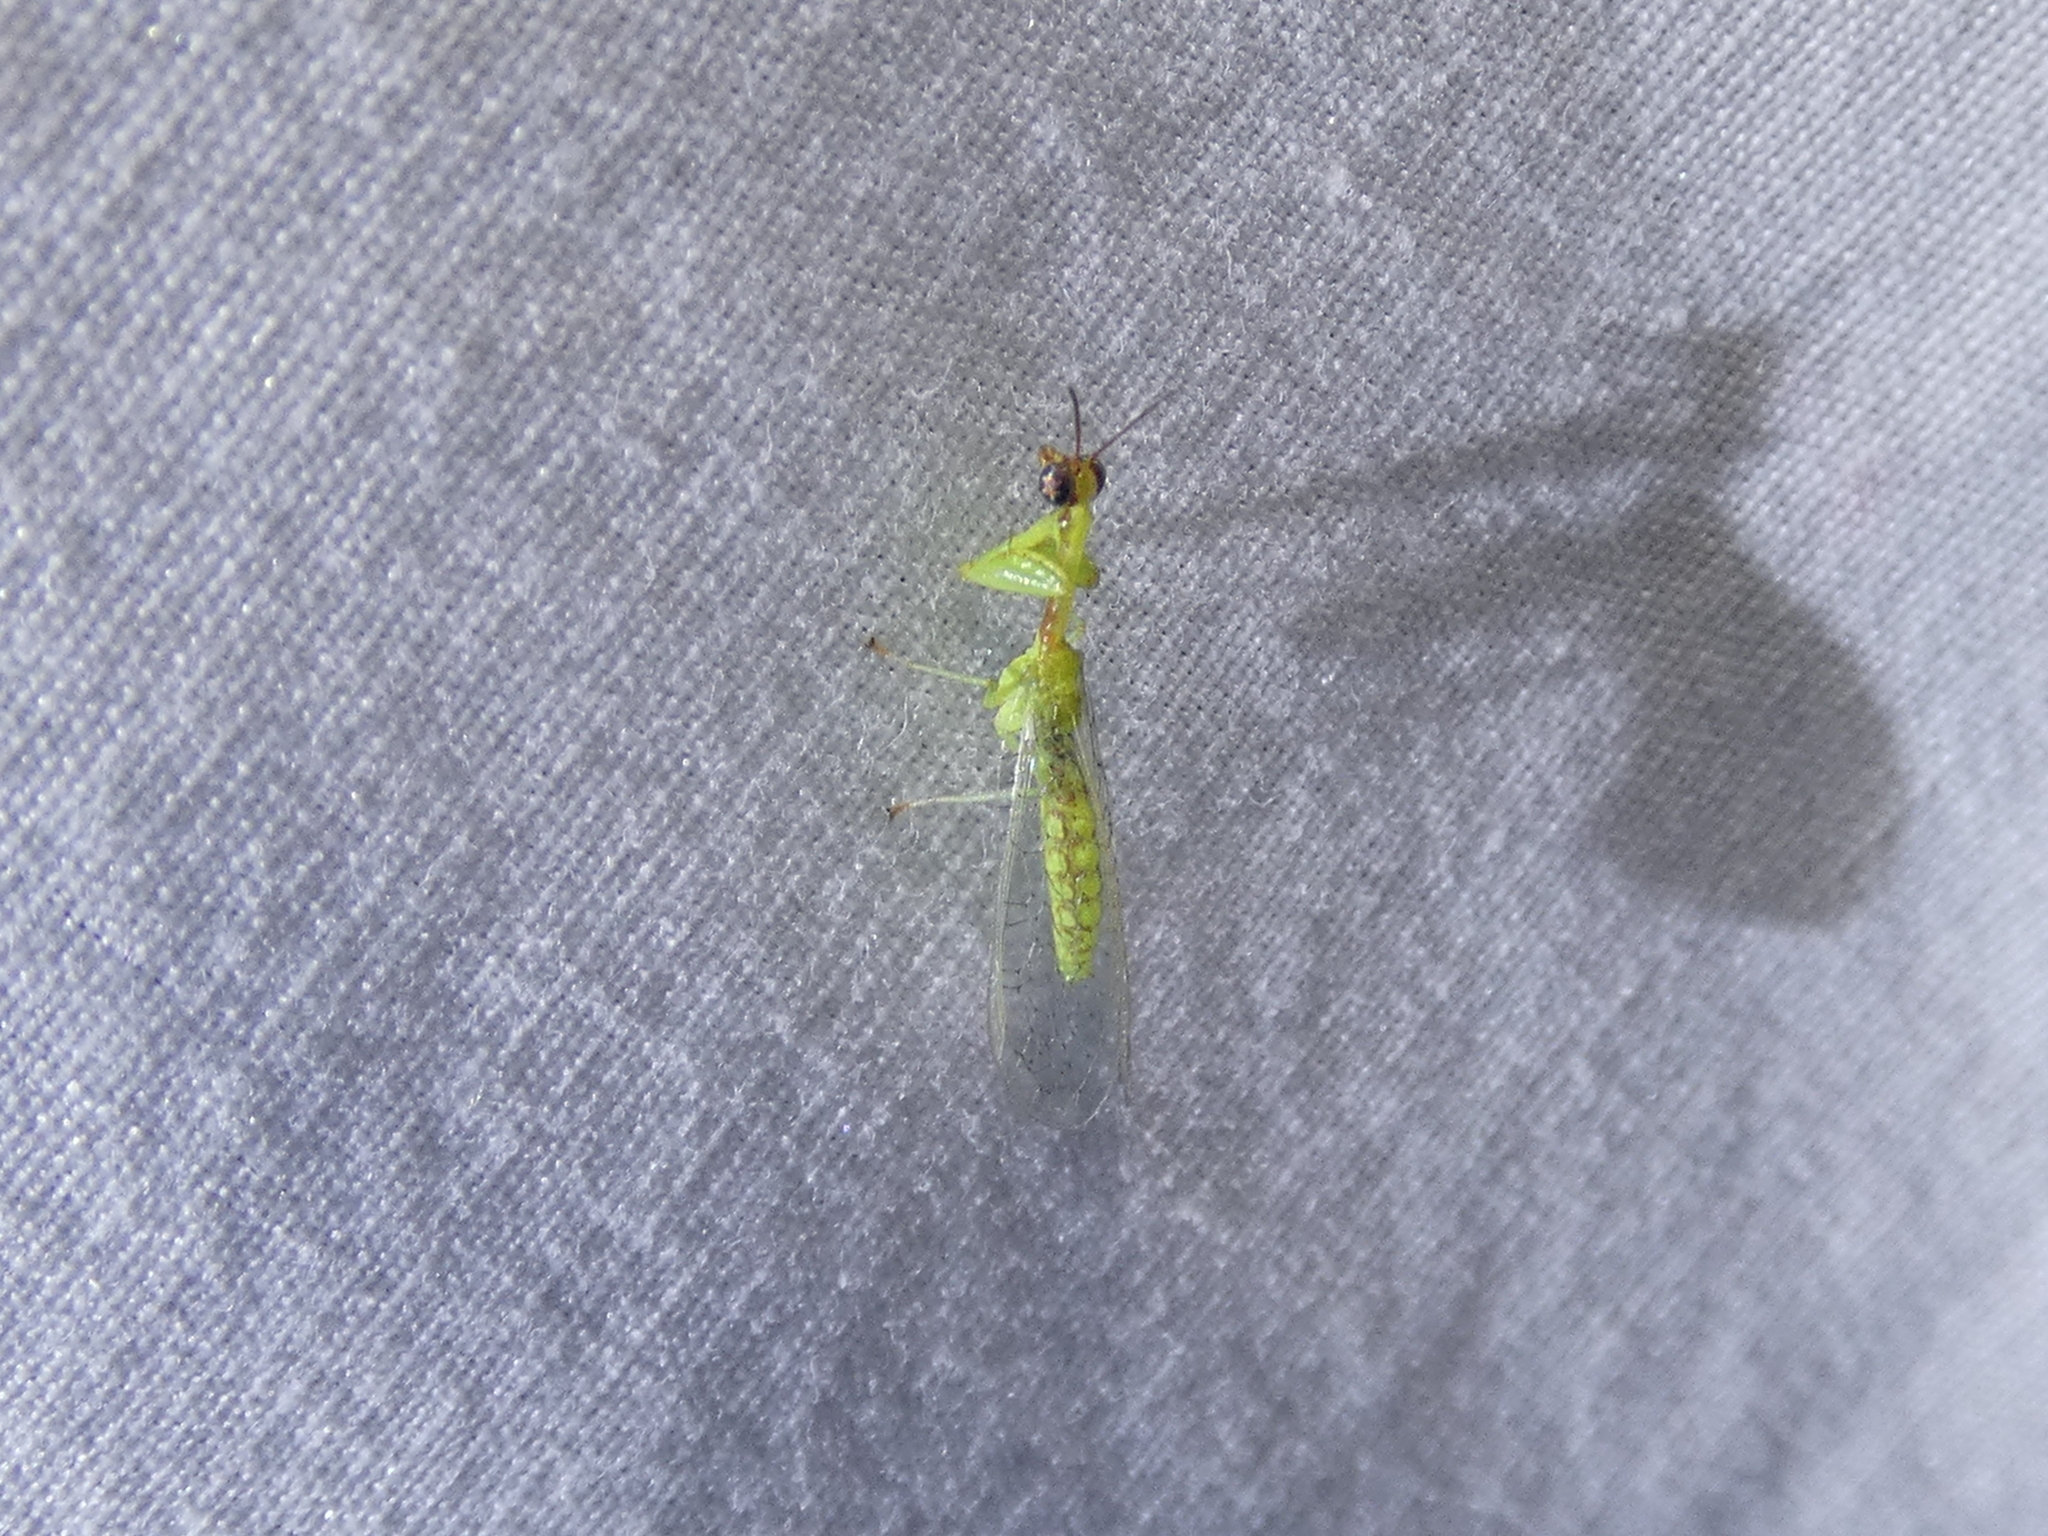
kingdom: Animalia
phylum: Arthropoda
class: Insecta
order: Neuroptera
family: Mantispidae
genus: Zeugomantispa
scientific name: Zeugomantispa minuta
